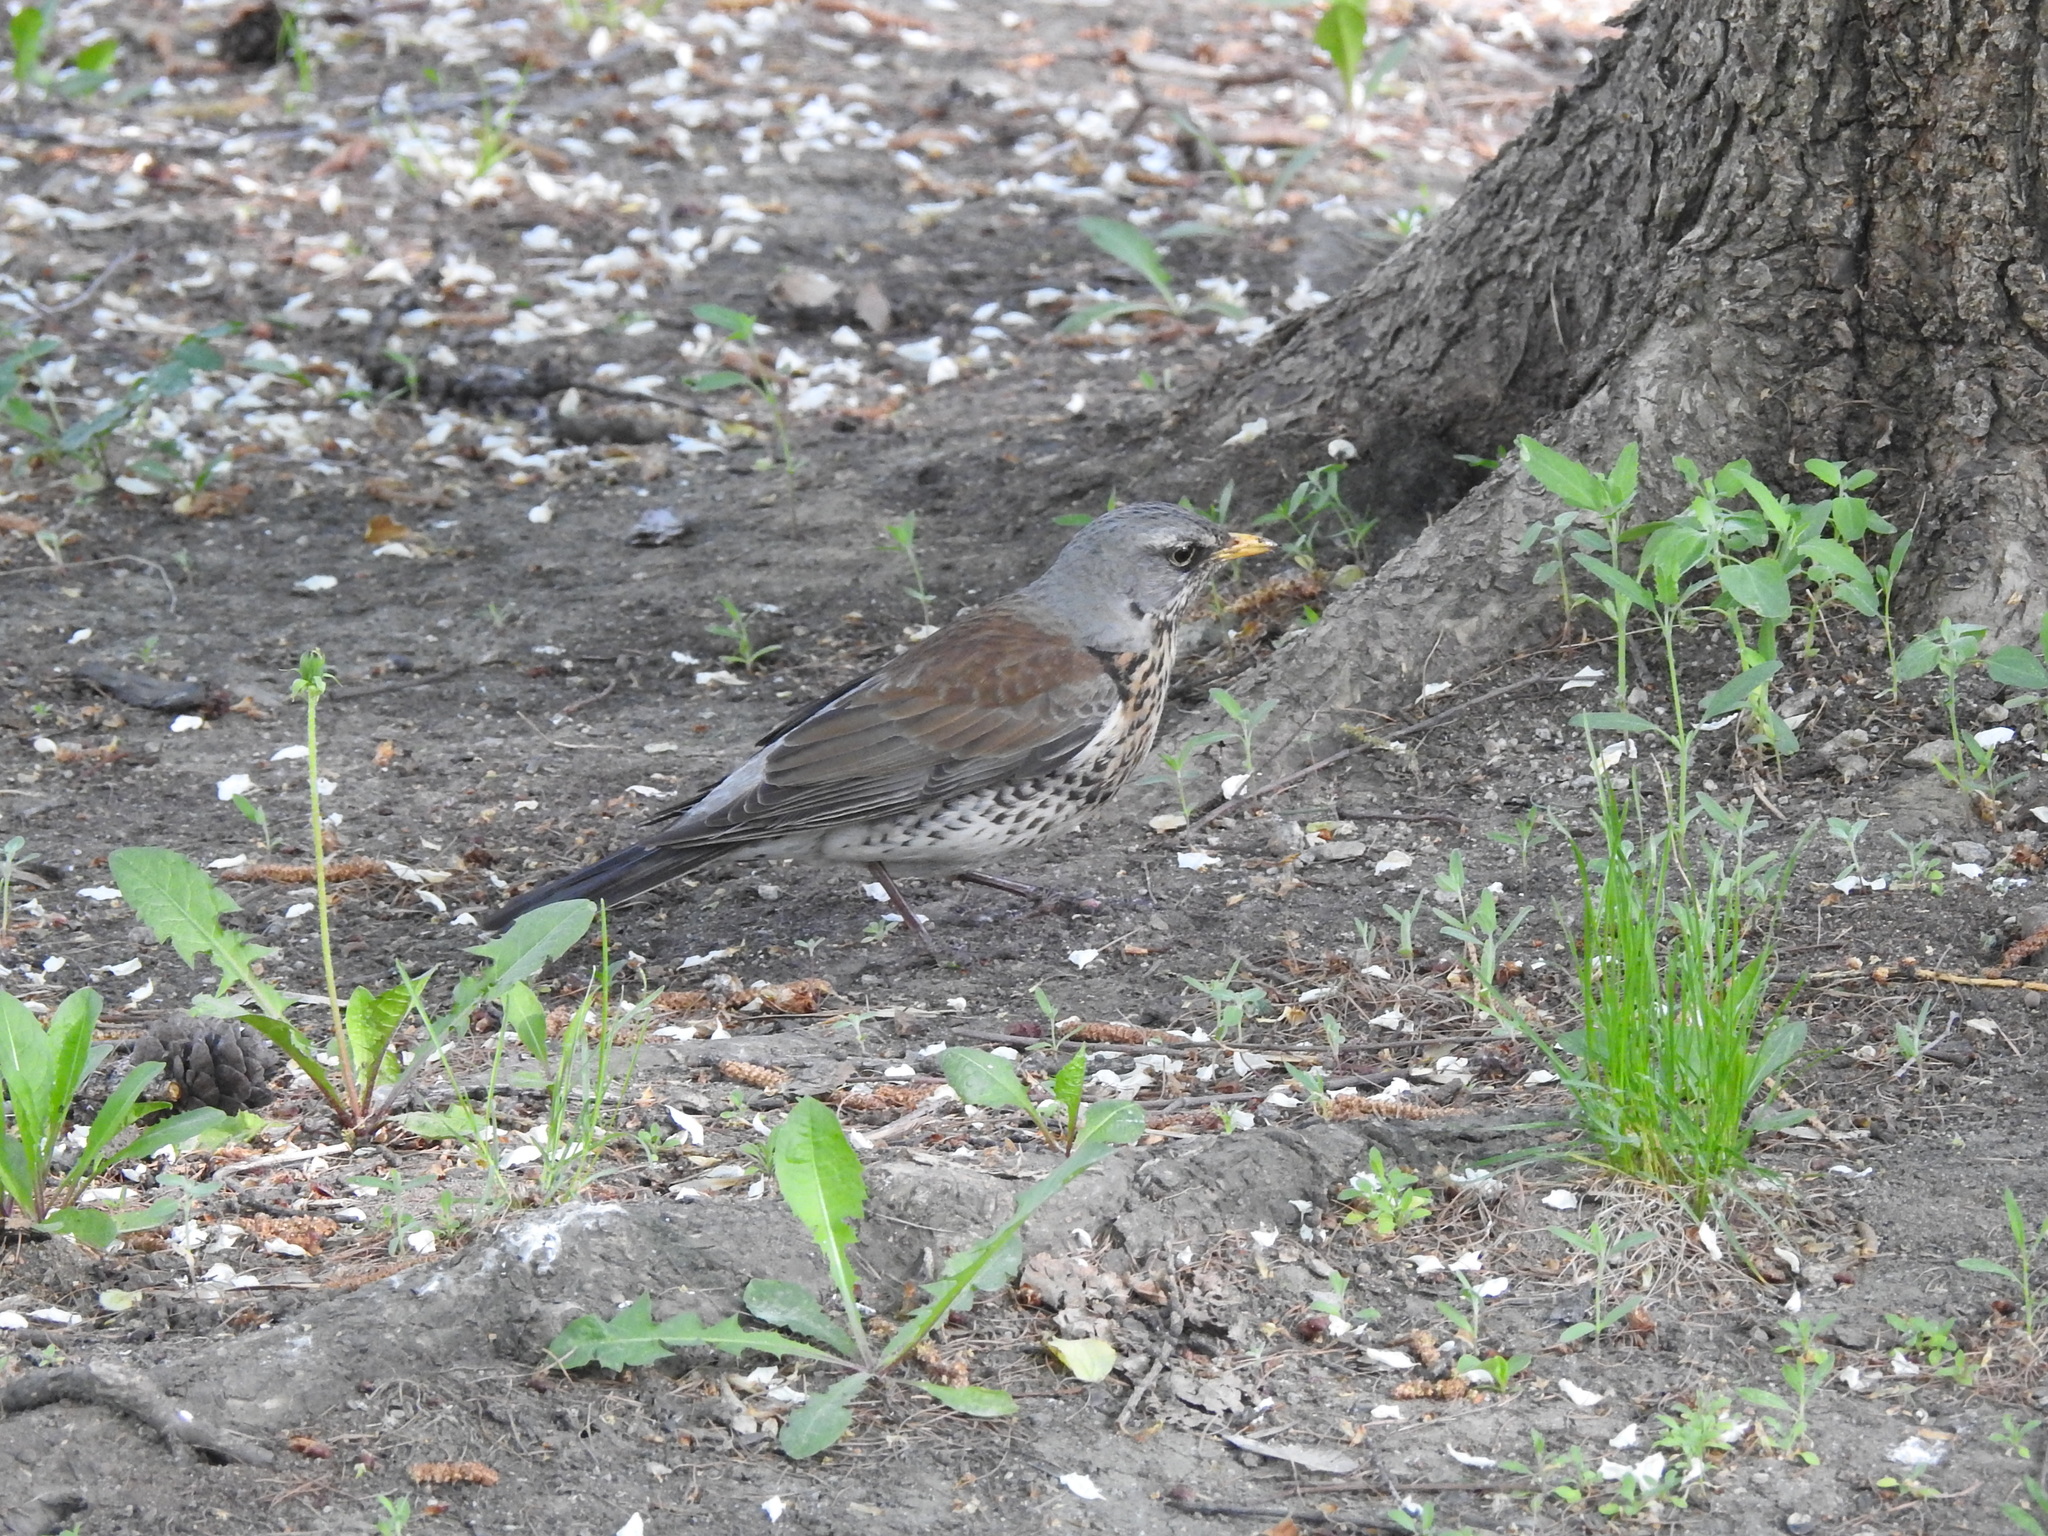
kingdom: Animalia
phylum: Chordata
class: Aves
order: Passeriformes
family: Turdidae
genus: Turdus
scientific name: Turdus pilaris
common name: Fieldfare
